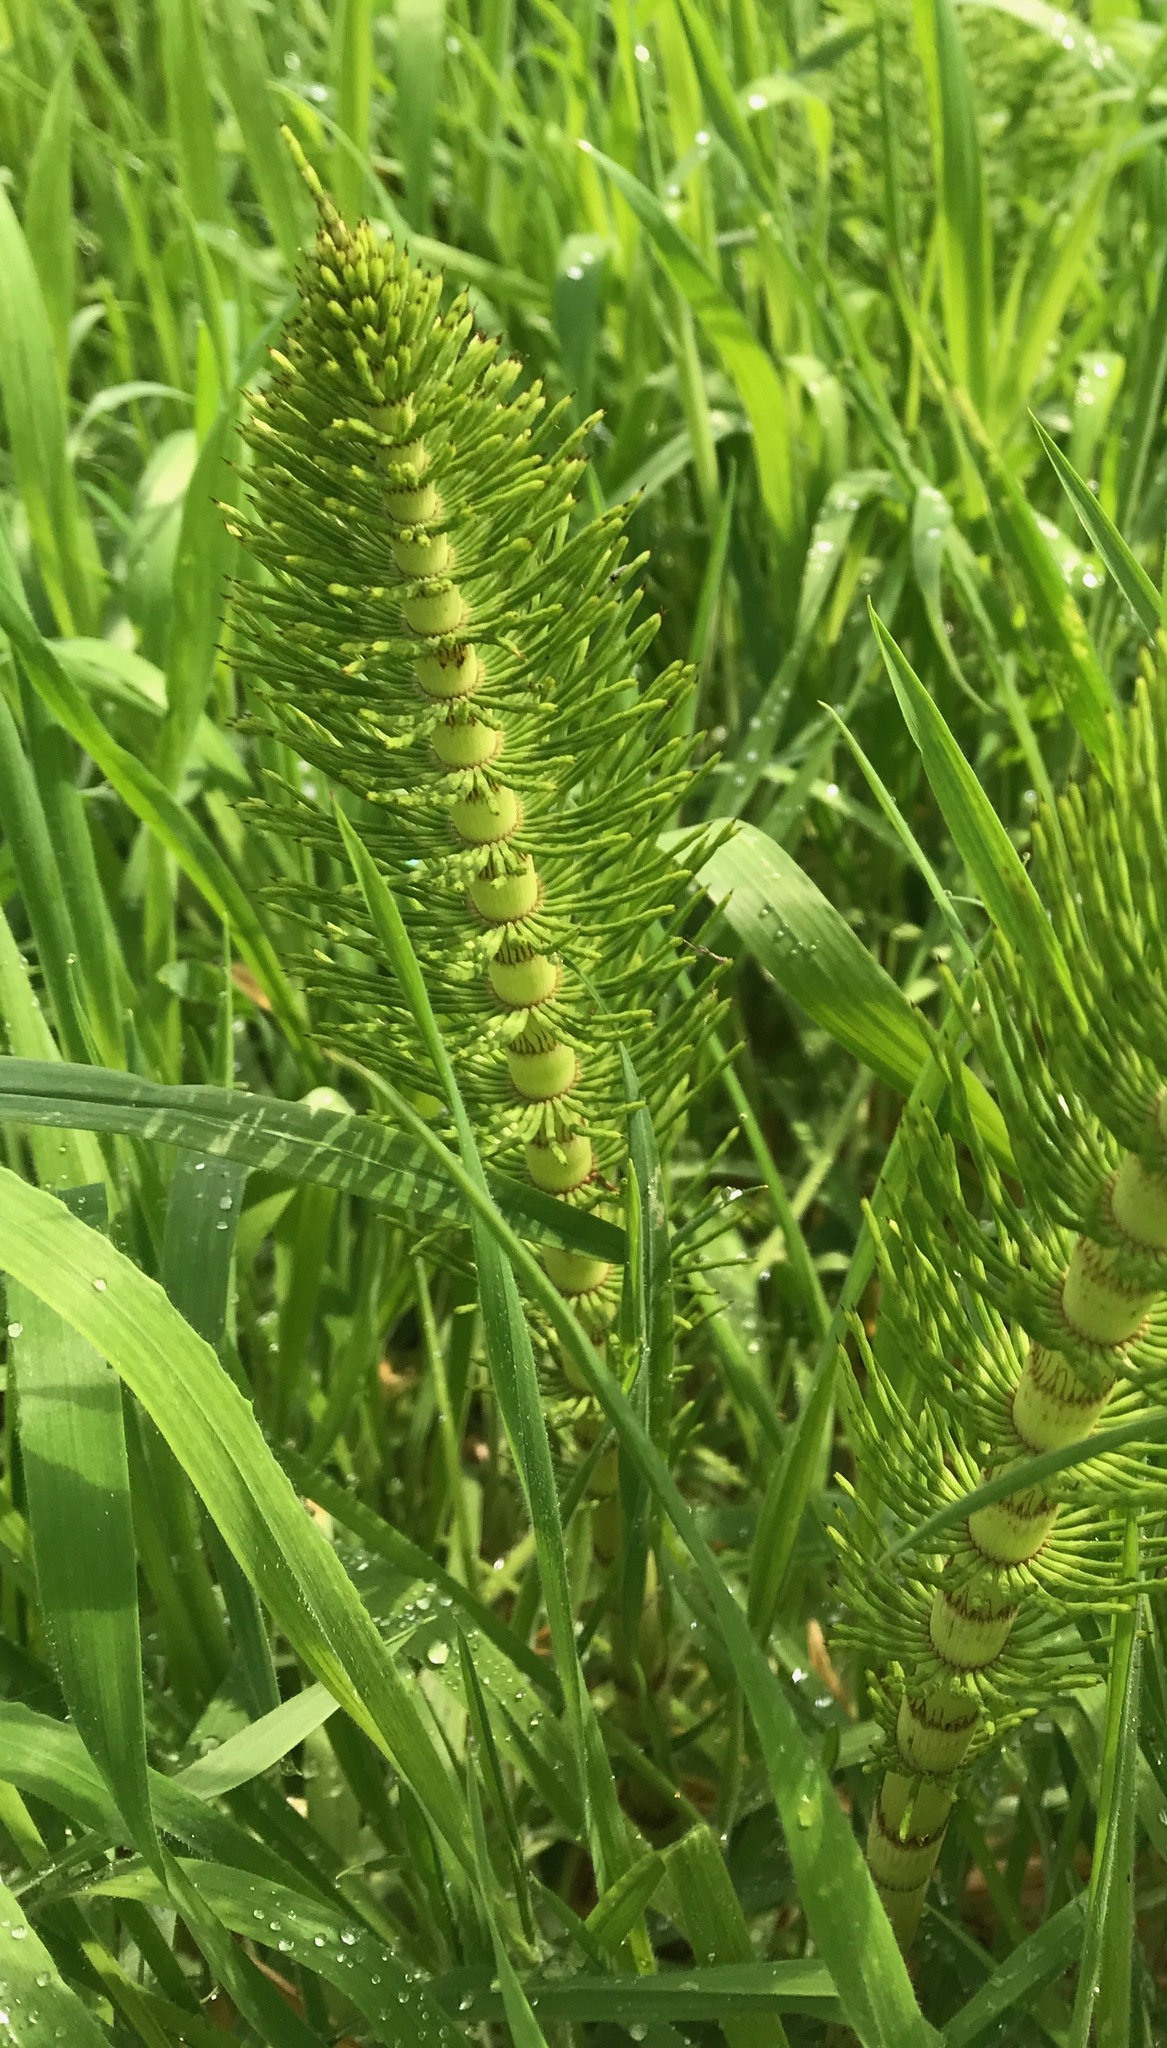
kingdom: Plantae
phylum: Tracheophyta
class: Polypodiopsida
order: Equisetales
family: Equisetaceae
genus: Equisetum
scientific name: Equisetum telmateia
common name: Great horsetail
